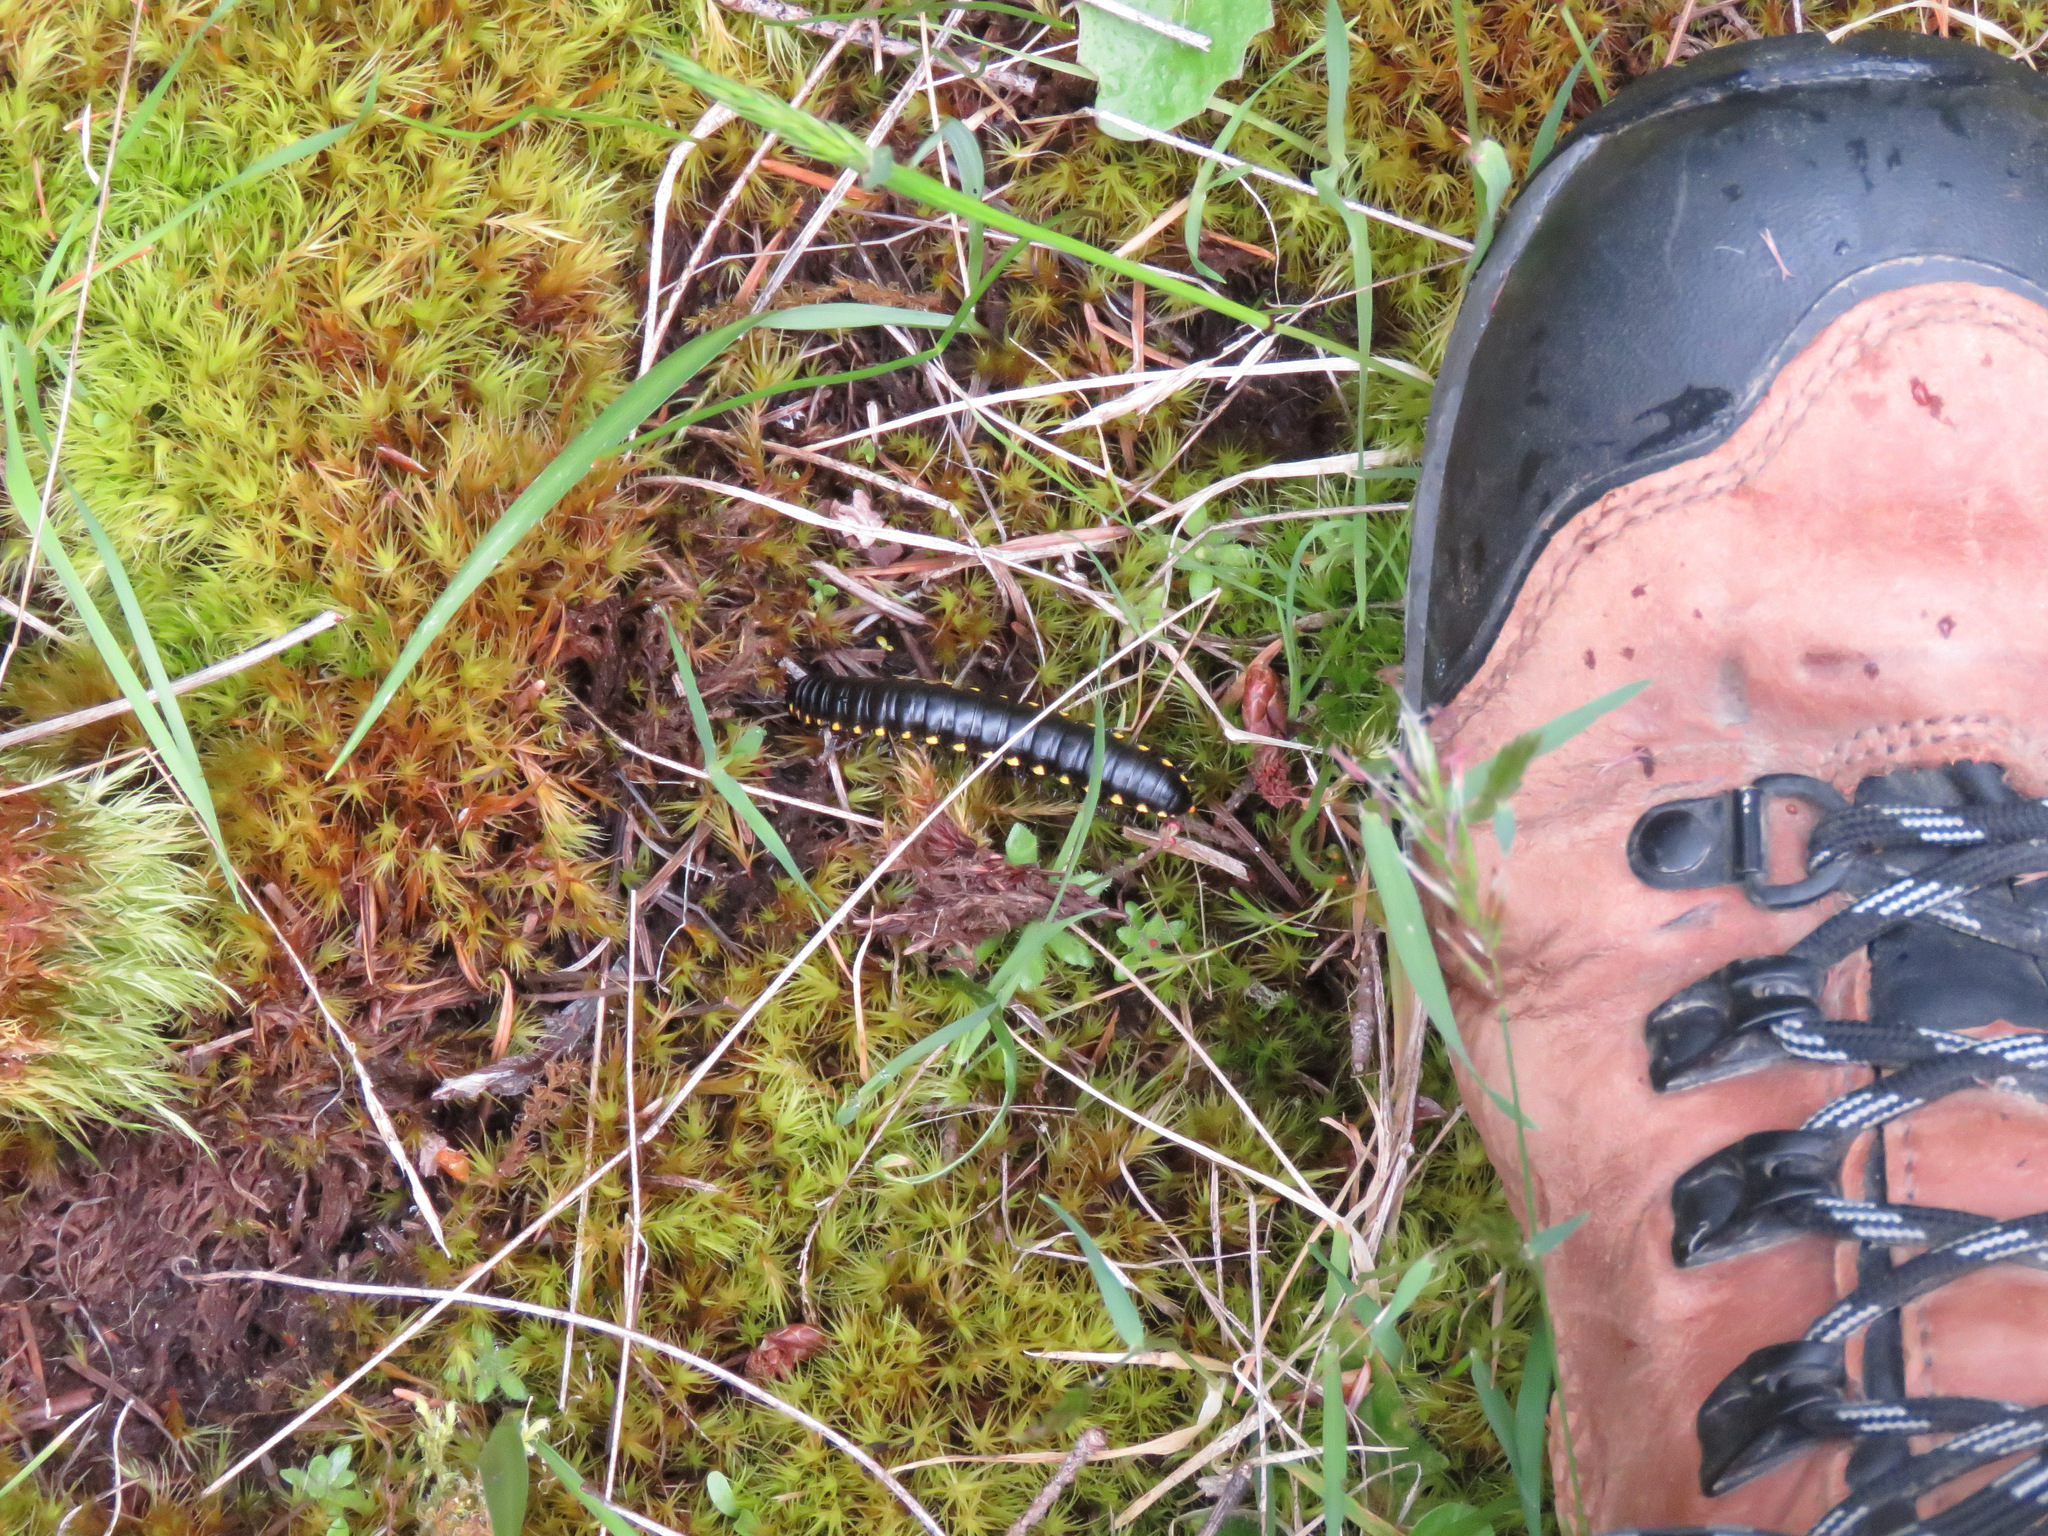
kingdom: Animalia
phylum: Arthropoda
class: Diplopoda
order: Polydesmida
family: Xystodesmidae
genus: Harpaphe
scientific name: Harpaphe haydeniana
